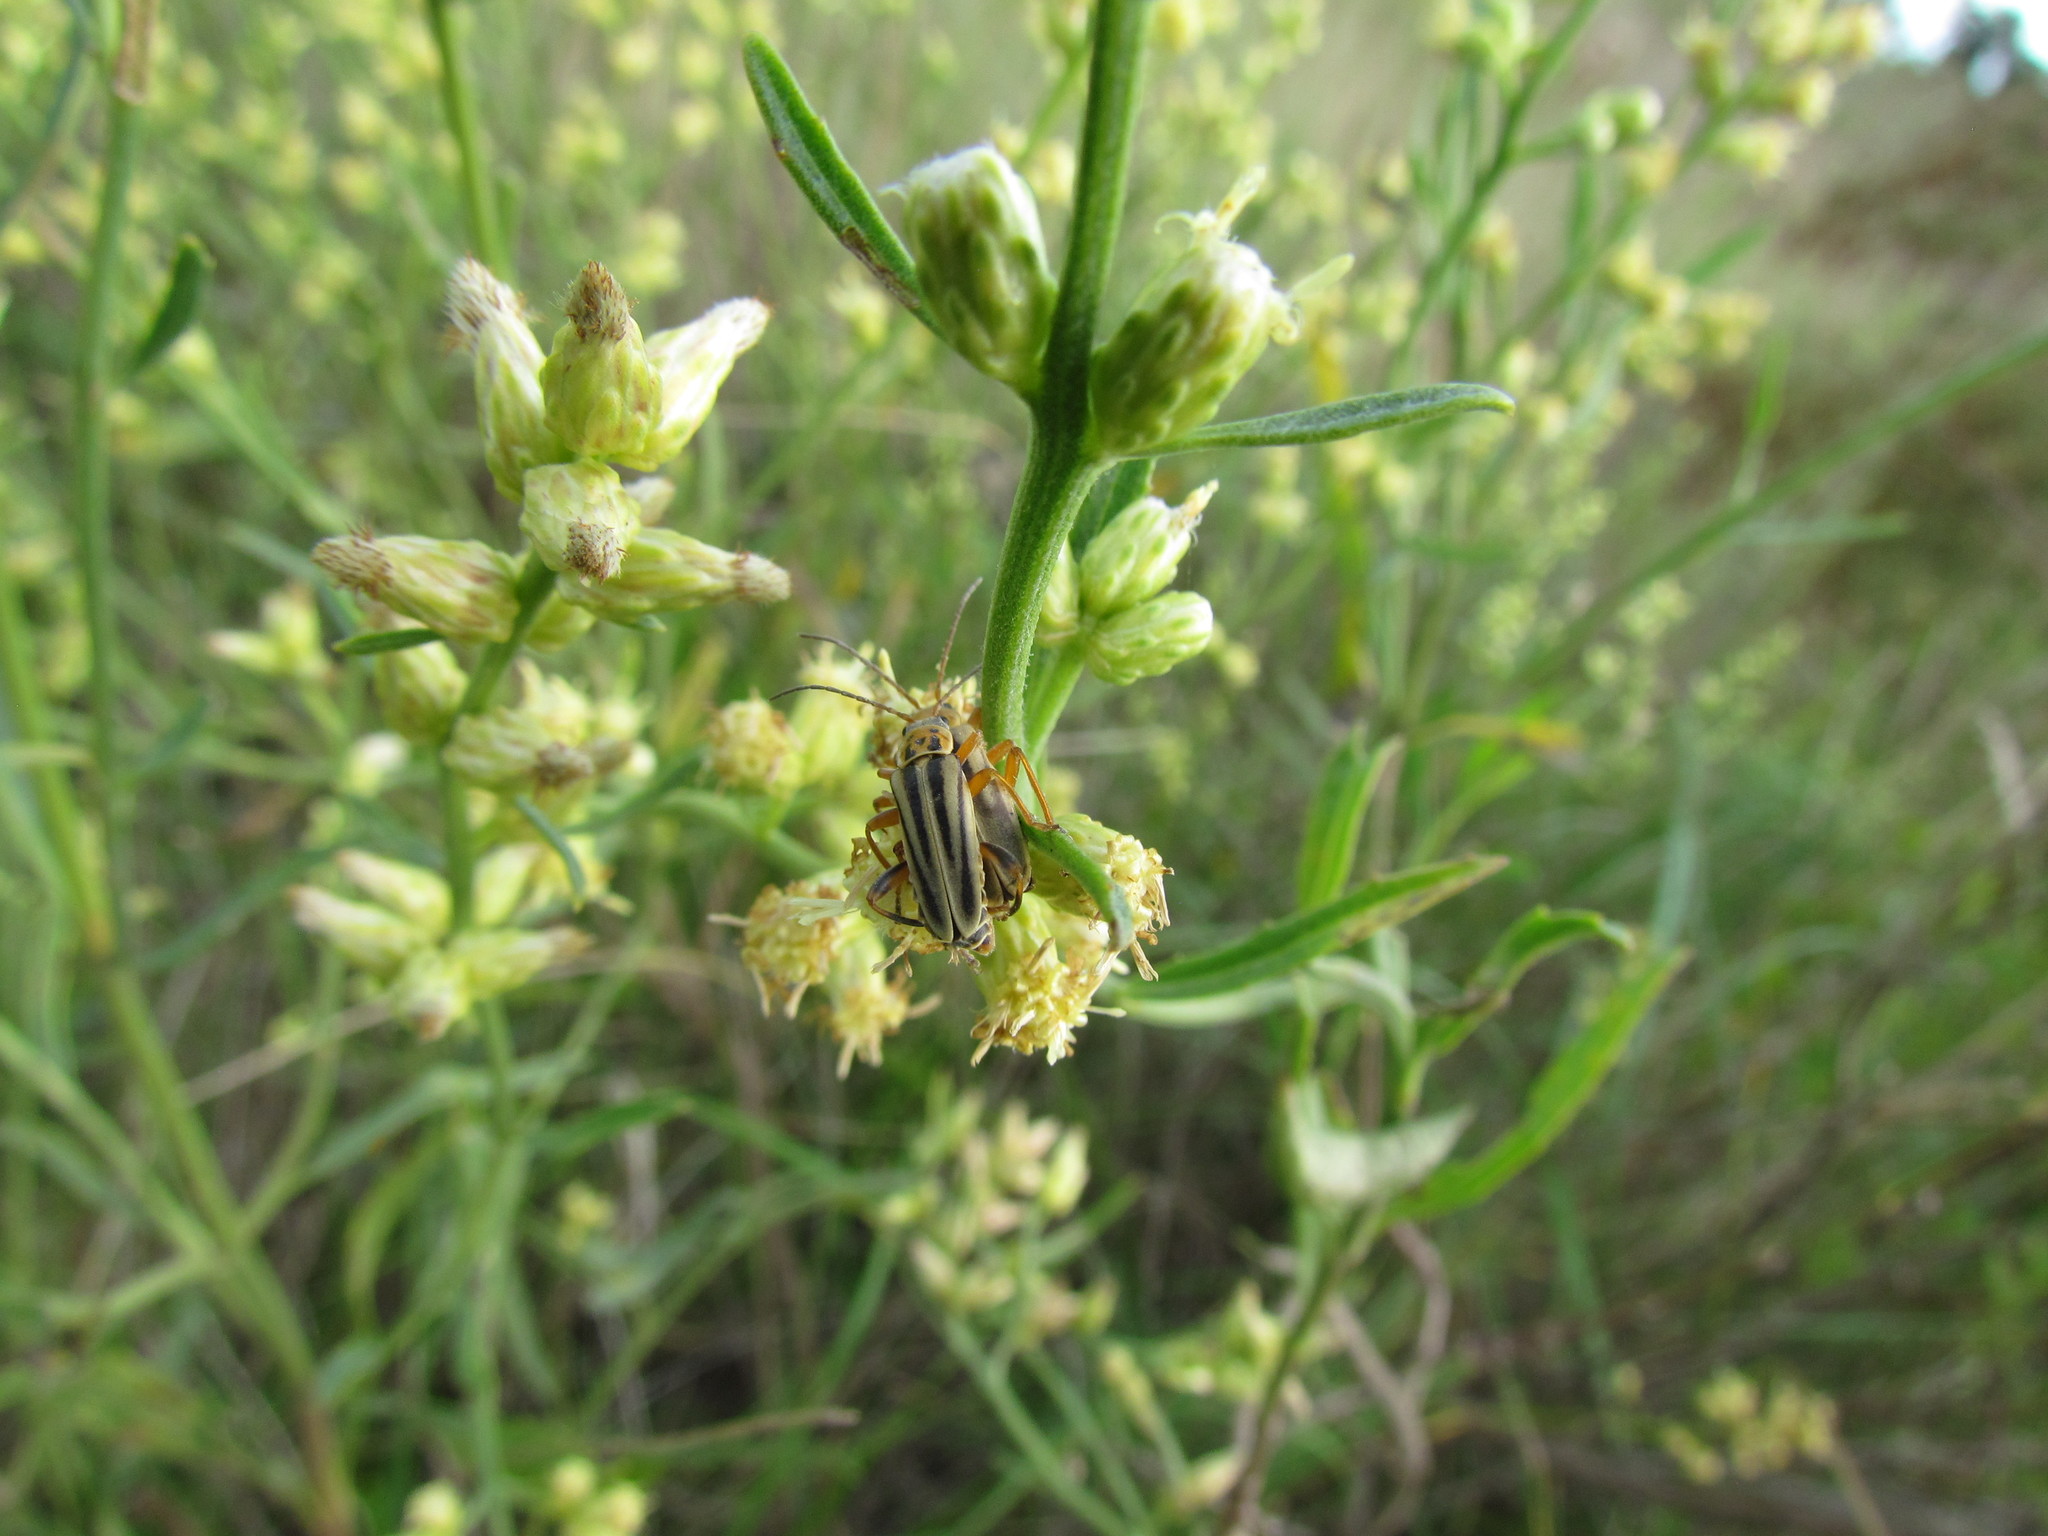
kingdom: Animalia
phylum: Arthropoda
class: Insecta
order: Coleoptera
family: Cantharidae
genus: Chauliognathus
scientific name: Chauliognathus
